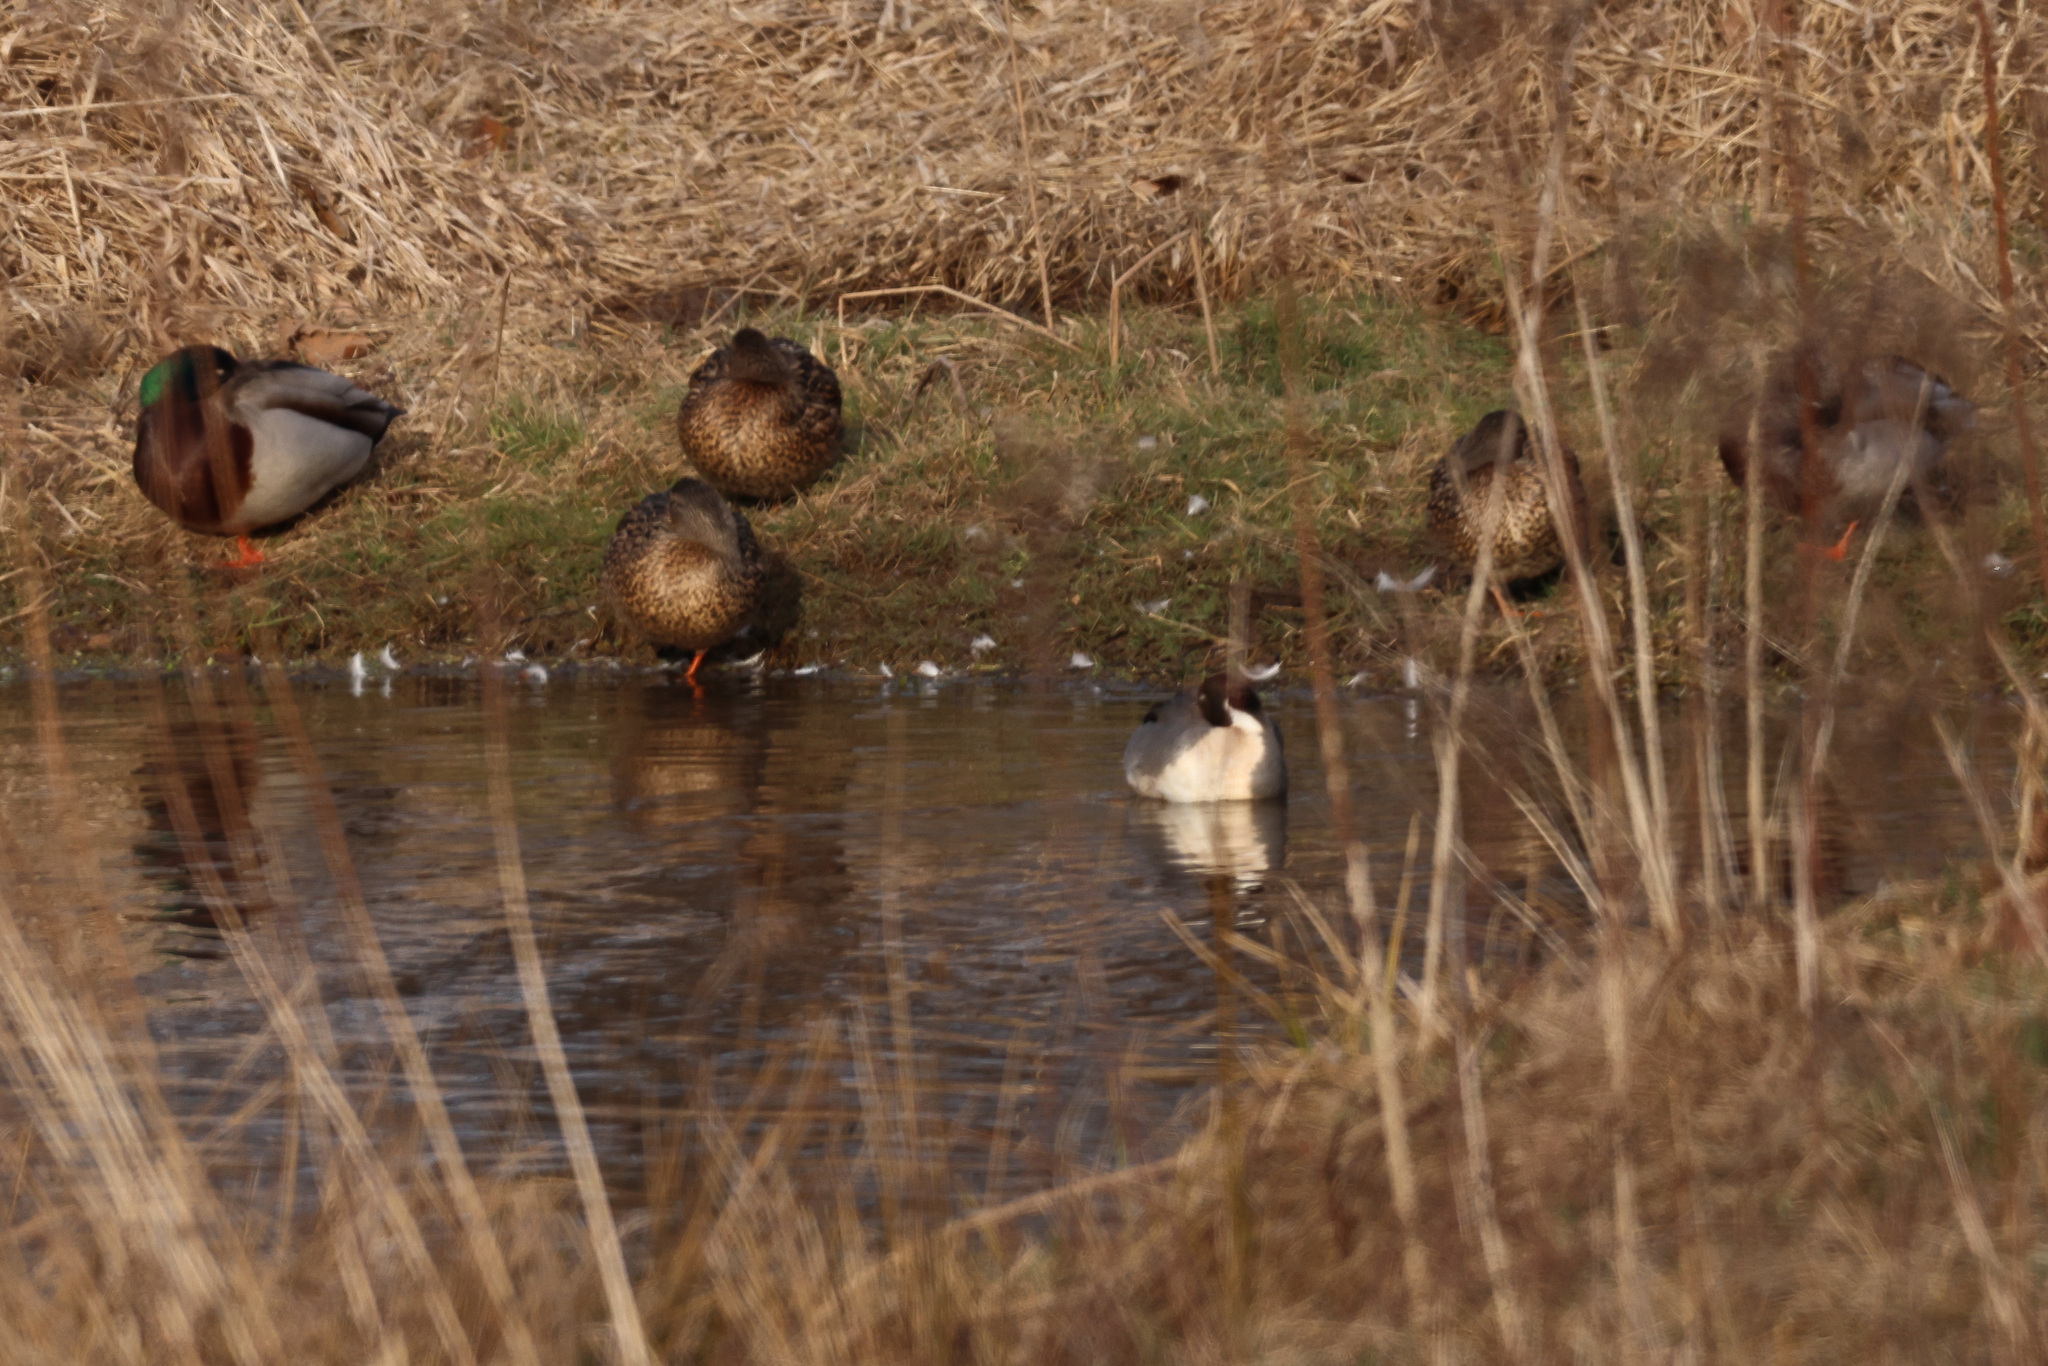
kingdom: Animalia
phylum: Chordata
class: Aves
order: Anseriformes
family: Anatidae
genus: Anas
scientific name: Anas platyrhynchos
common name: Mallard
